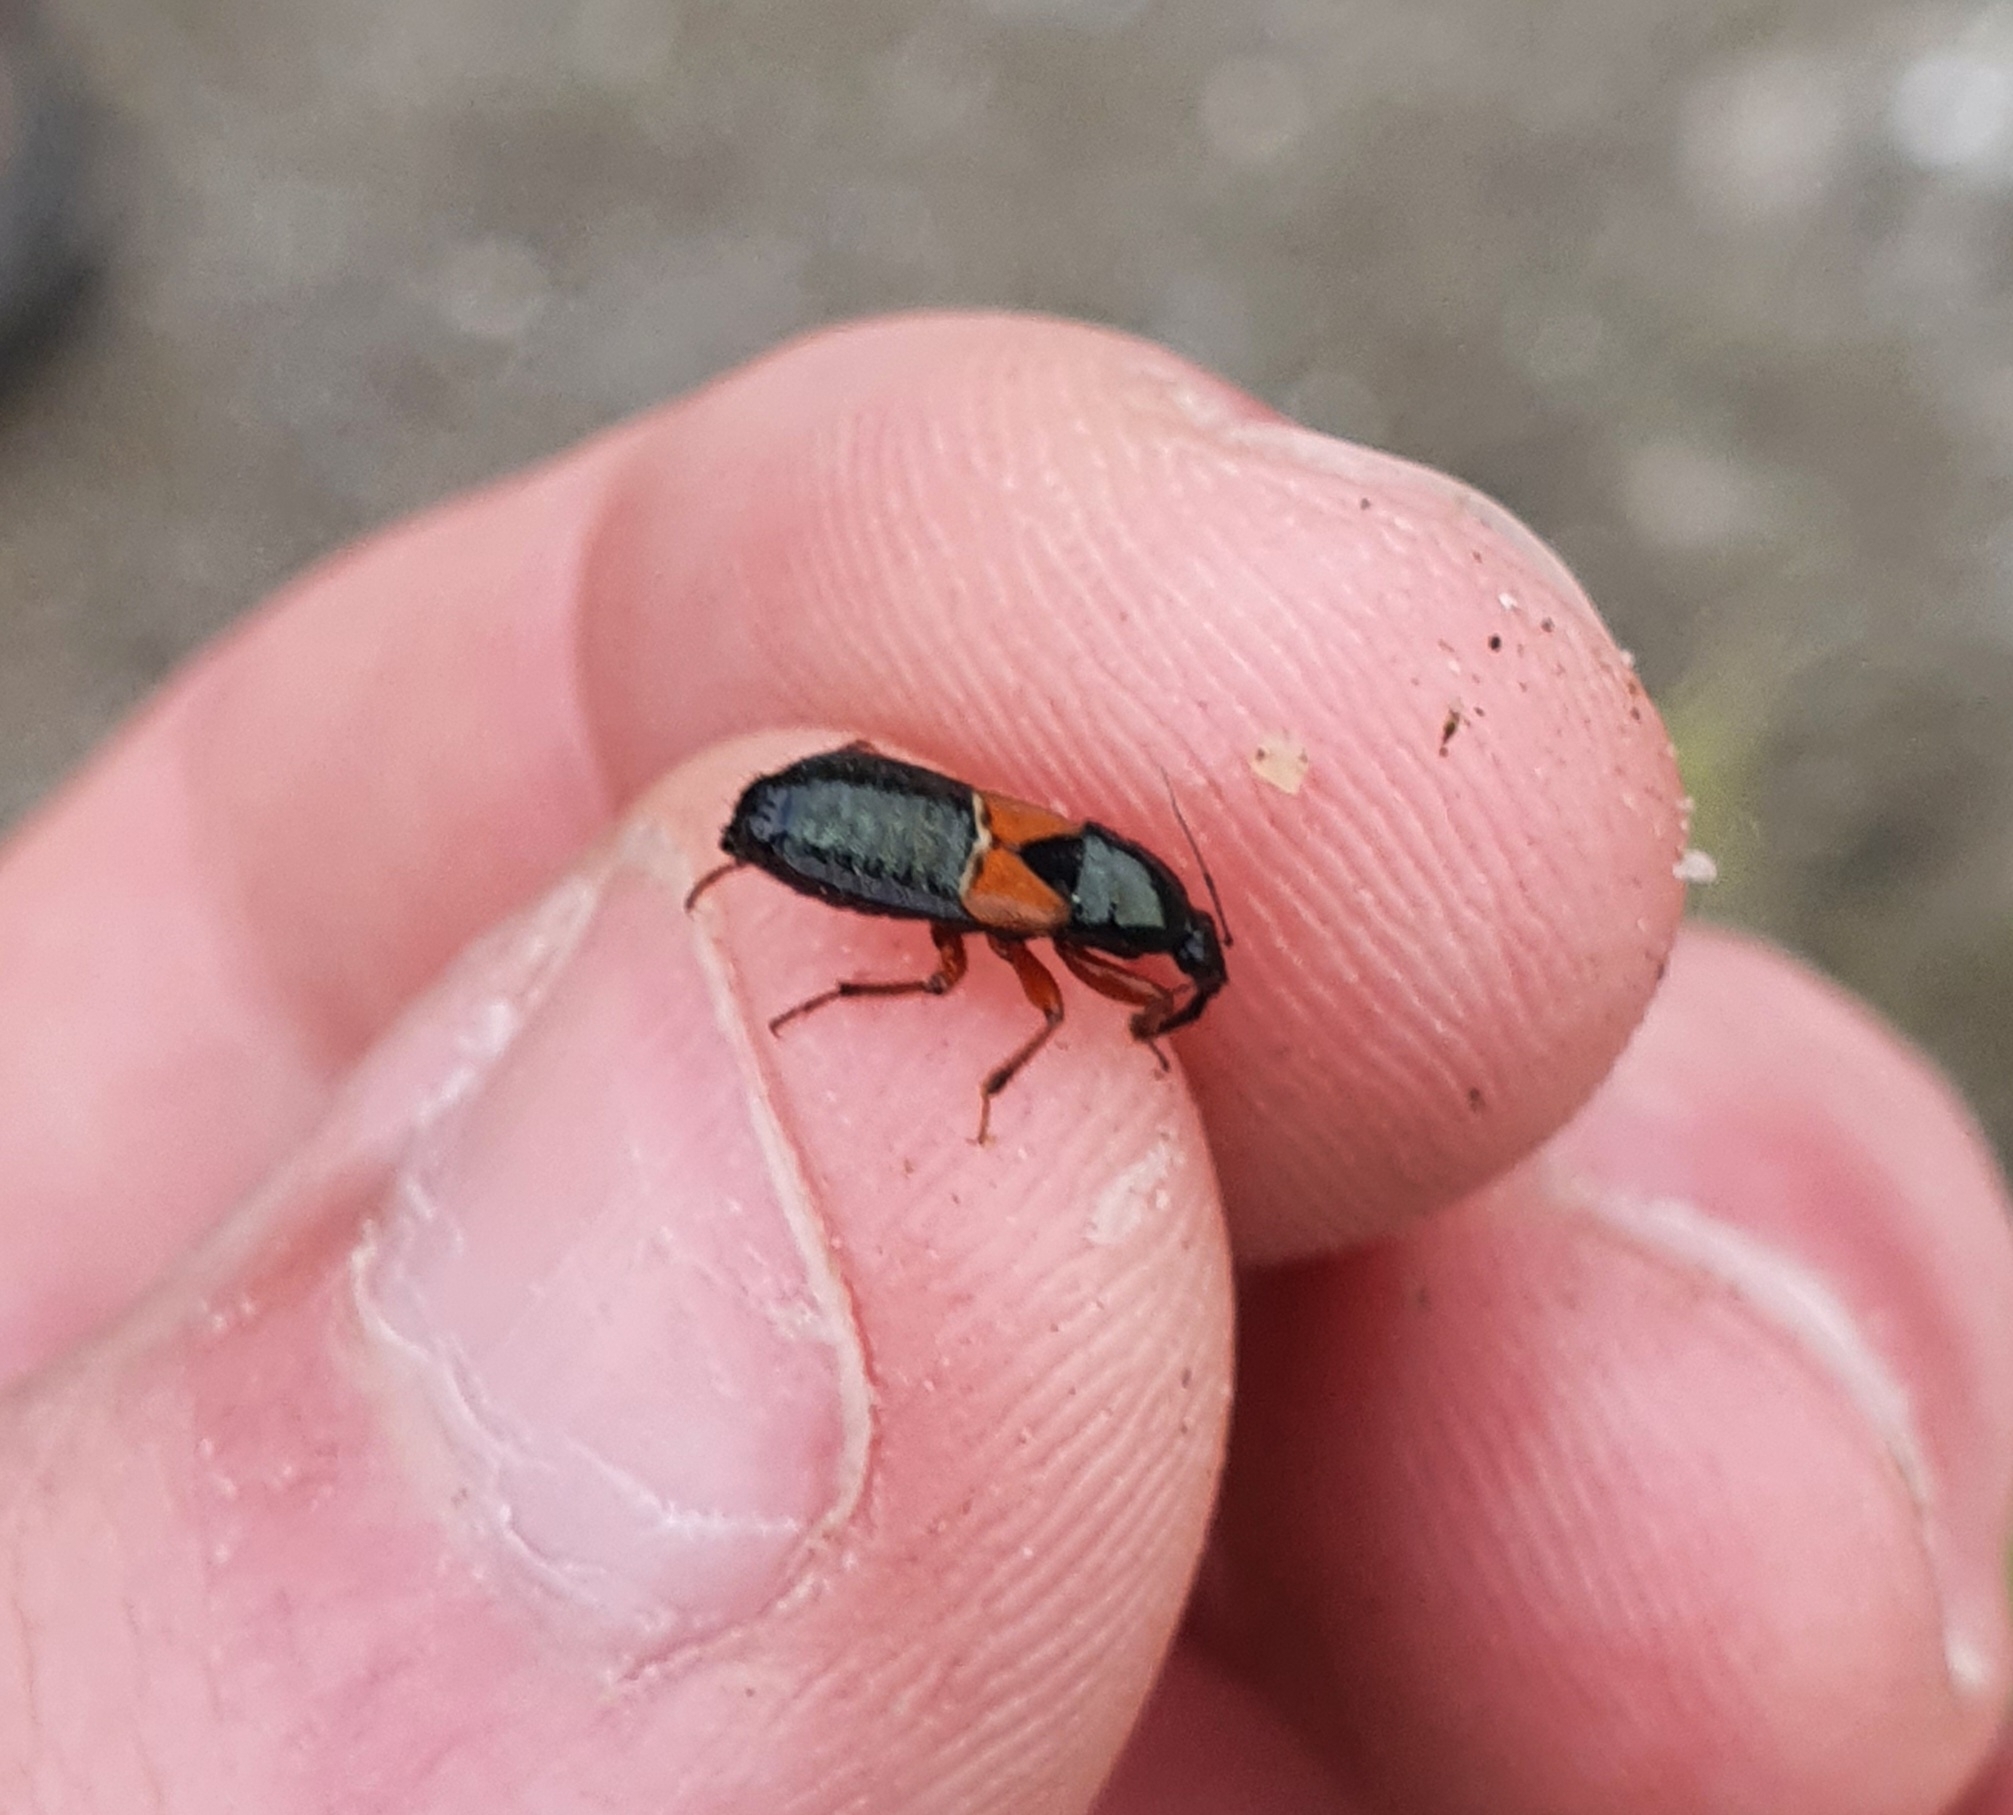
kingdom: Animalia
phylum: Arthropoda
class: Insecta
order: Hemiptera
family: Nabidae
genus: Prostemma
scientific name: Prostemma guttula
